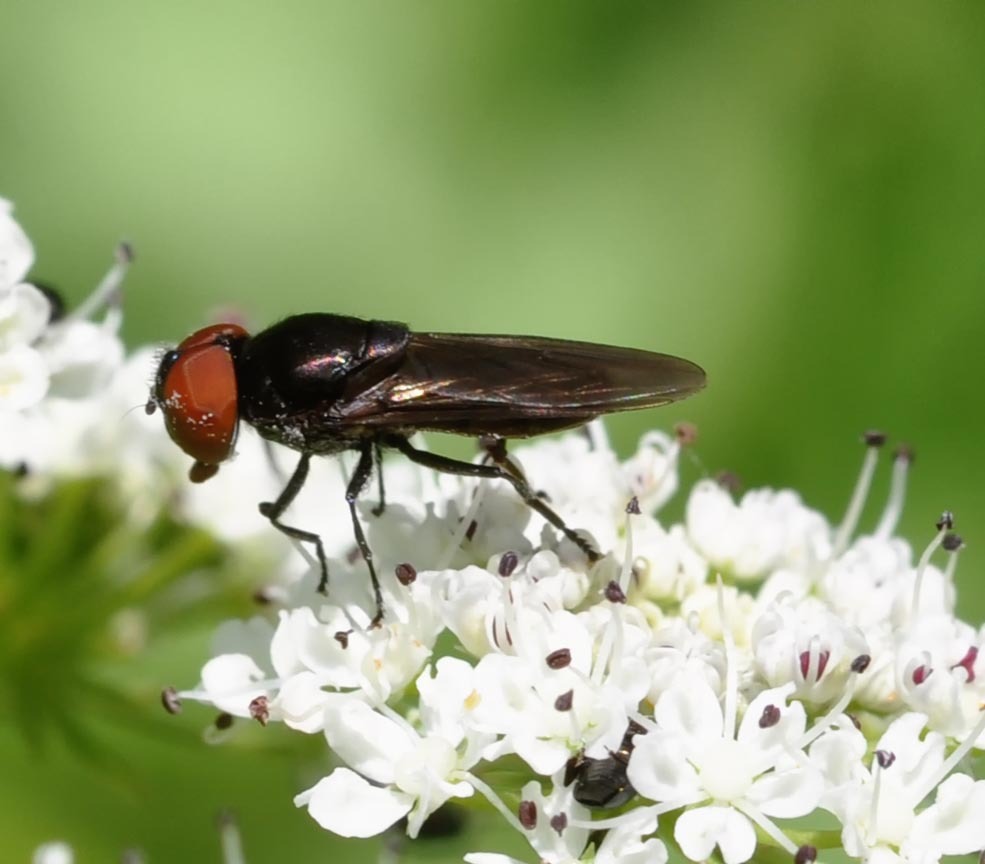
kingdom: Animalia
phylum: Arthropoda
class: Insecta
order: Diptera
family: Syrphidae
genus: Chrysogaster
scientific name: Chrysogaster solstitialis
